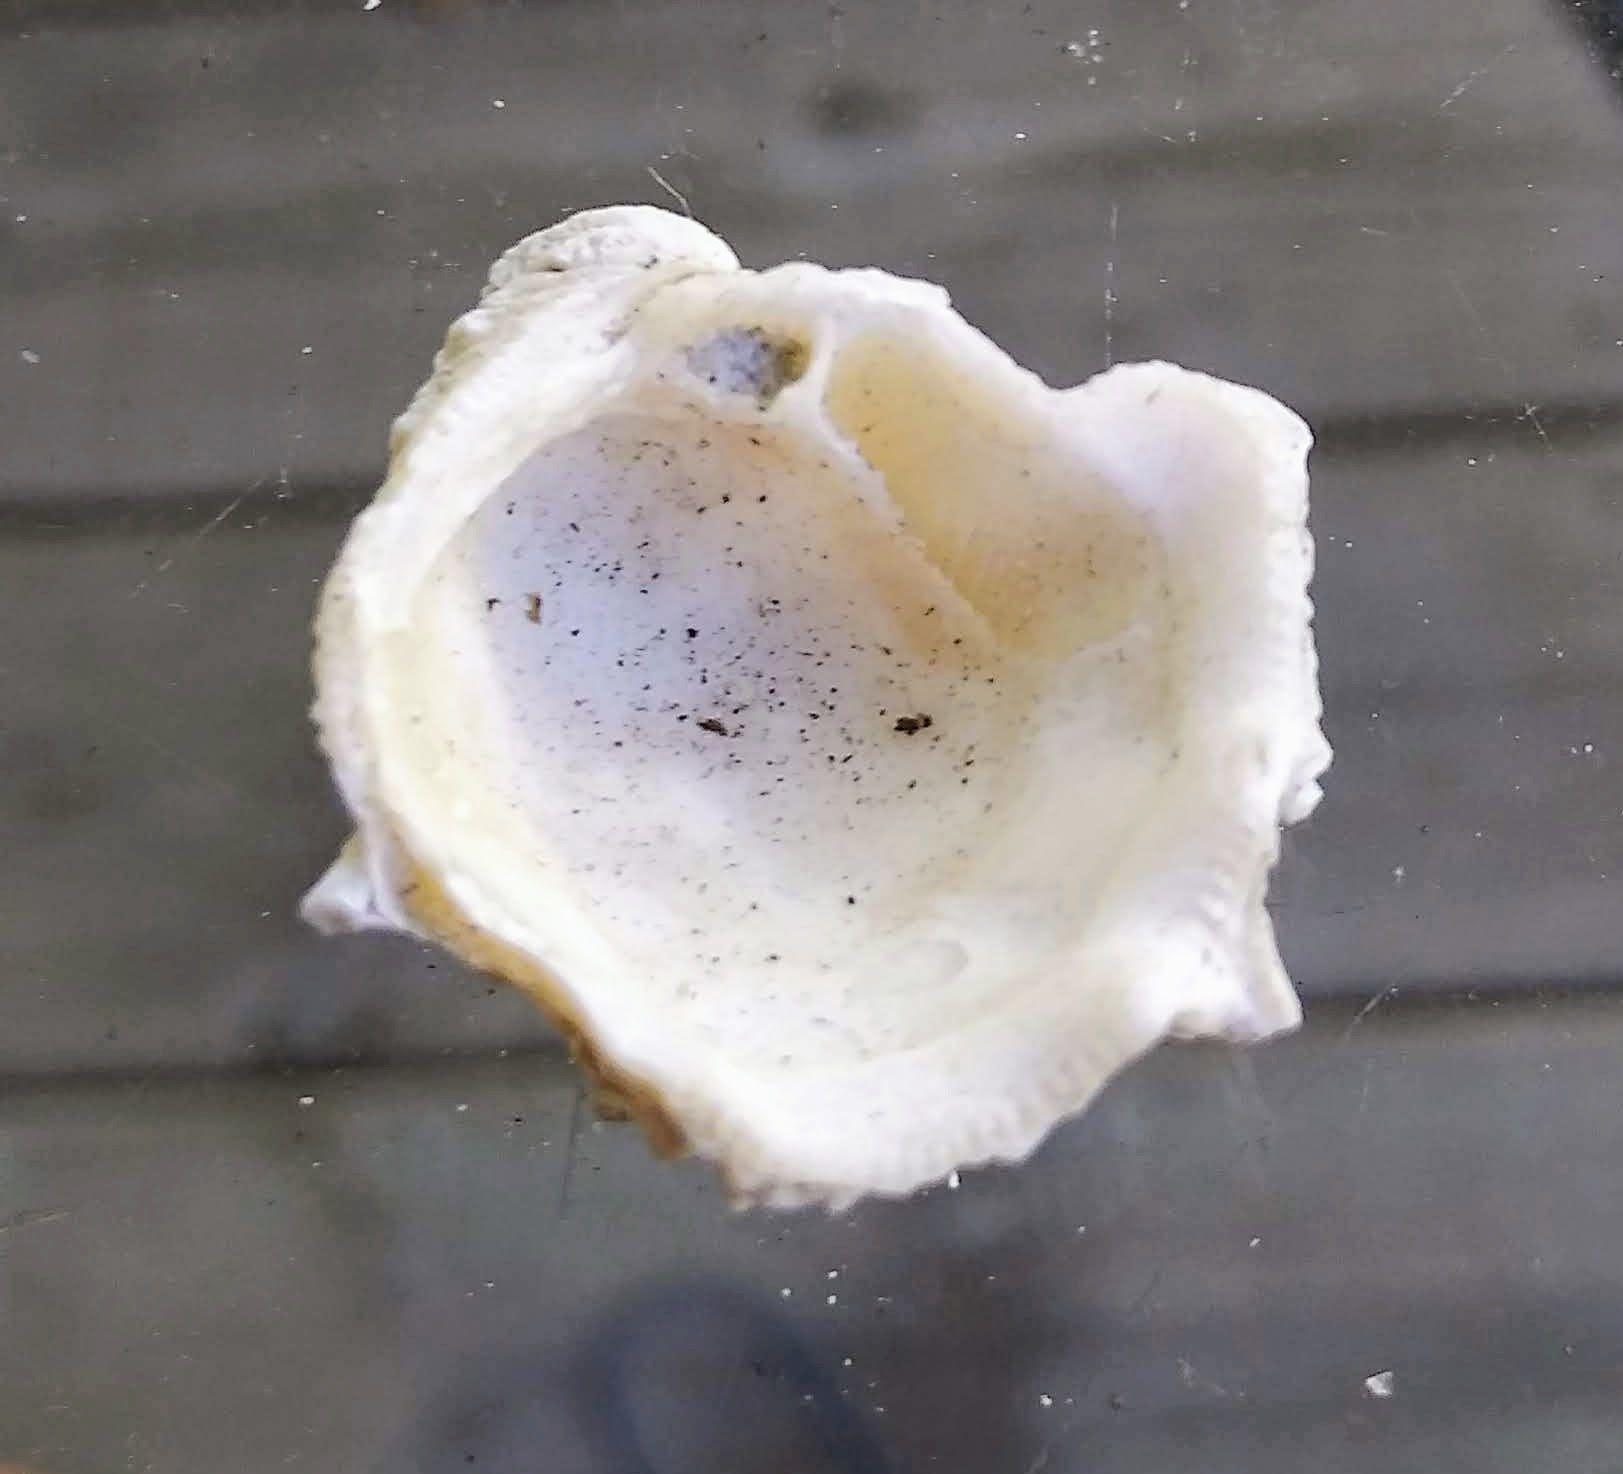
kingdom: Animalia
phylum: Mollusca
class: Bivalvia
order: Venerida
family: Chamidae
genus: Arcinella
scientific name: Arcinella cornuta
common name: Florida spiny jewel box
